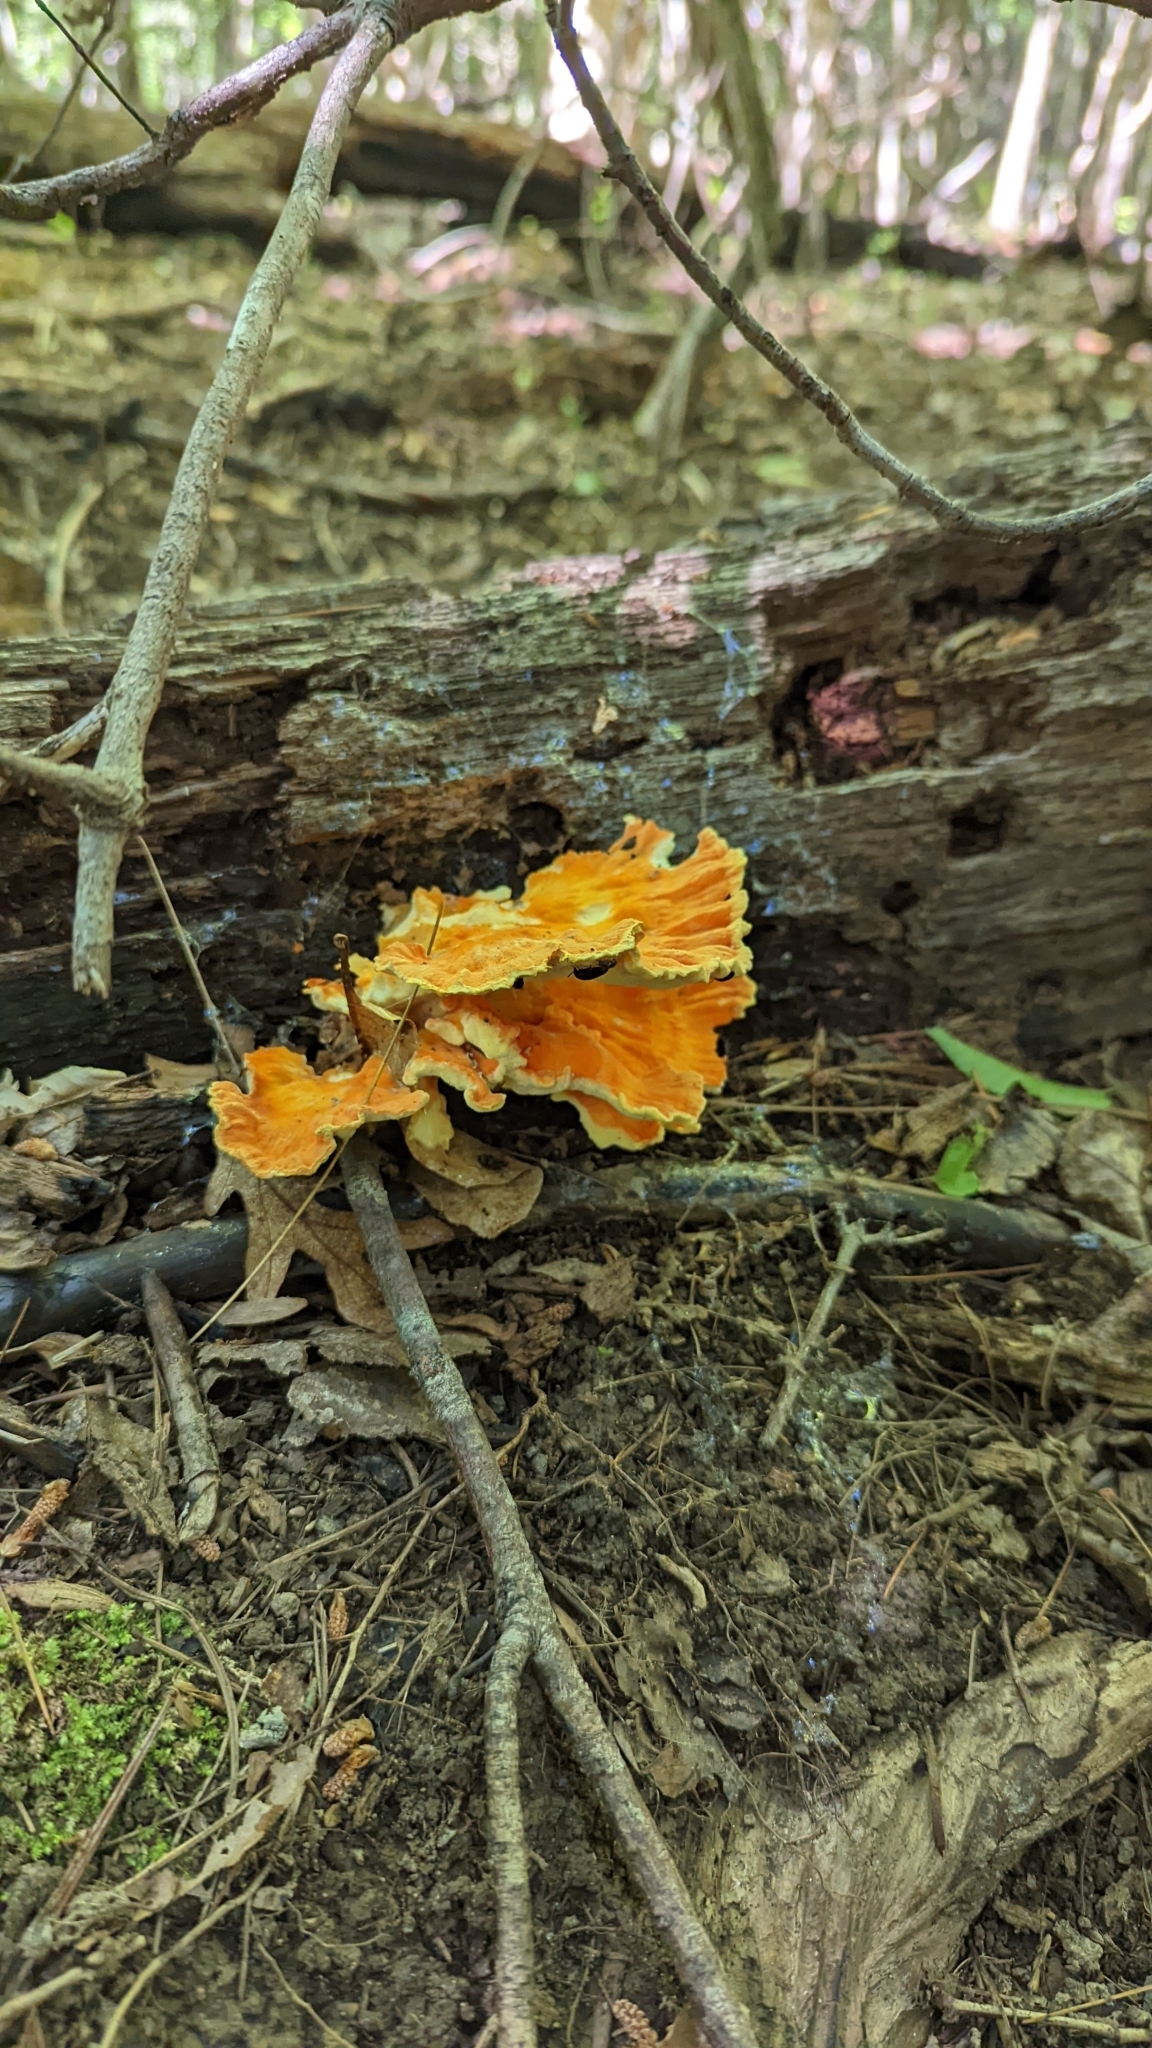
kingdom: Fungi
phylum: Basidiomycota
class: Agaricomycetes
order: Polyporales
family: Laetiporaceae
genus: Laetiporus
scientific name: Laetiporus sulphureus
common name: Chicken of the woods
